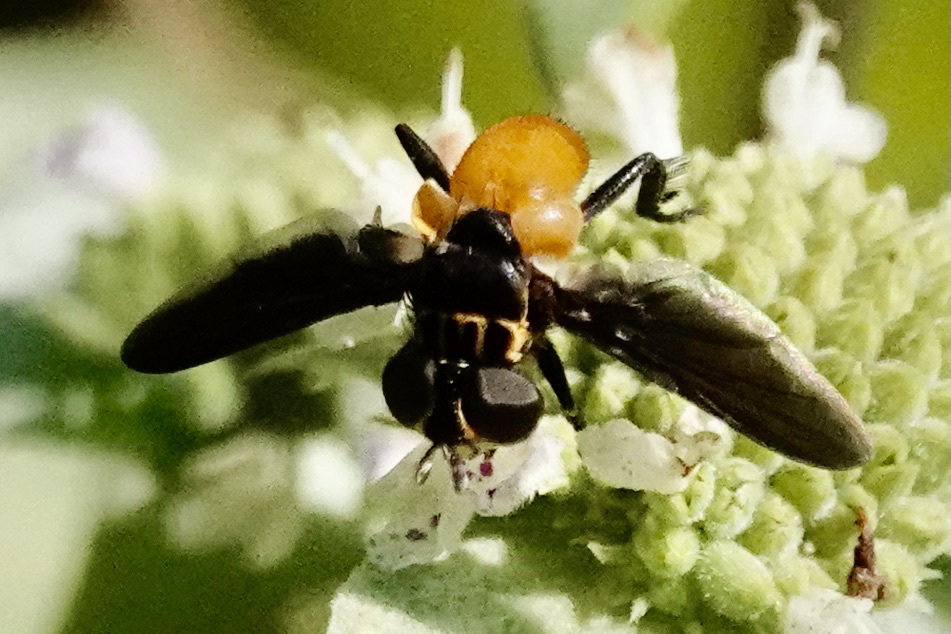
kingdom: Animalia
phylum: Arthropoda
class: Insecta
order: Diptera
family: Tachinidae
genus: Trichopoda
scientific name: Trichopoda pennipes
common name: Tachinid fly
